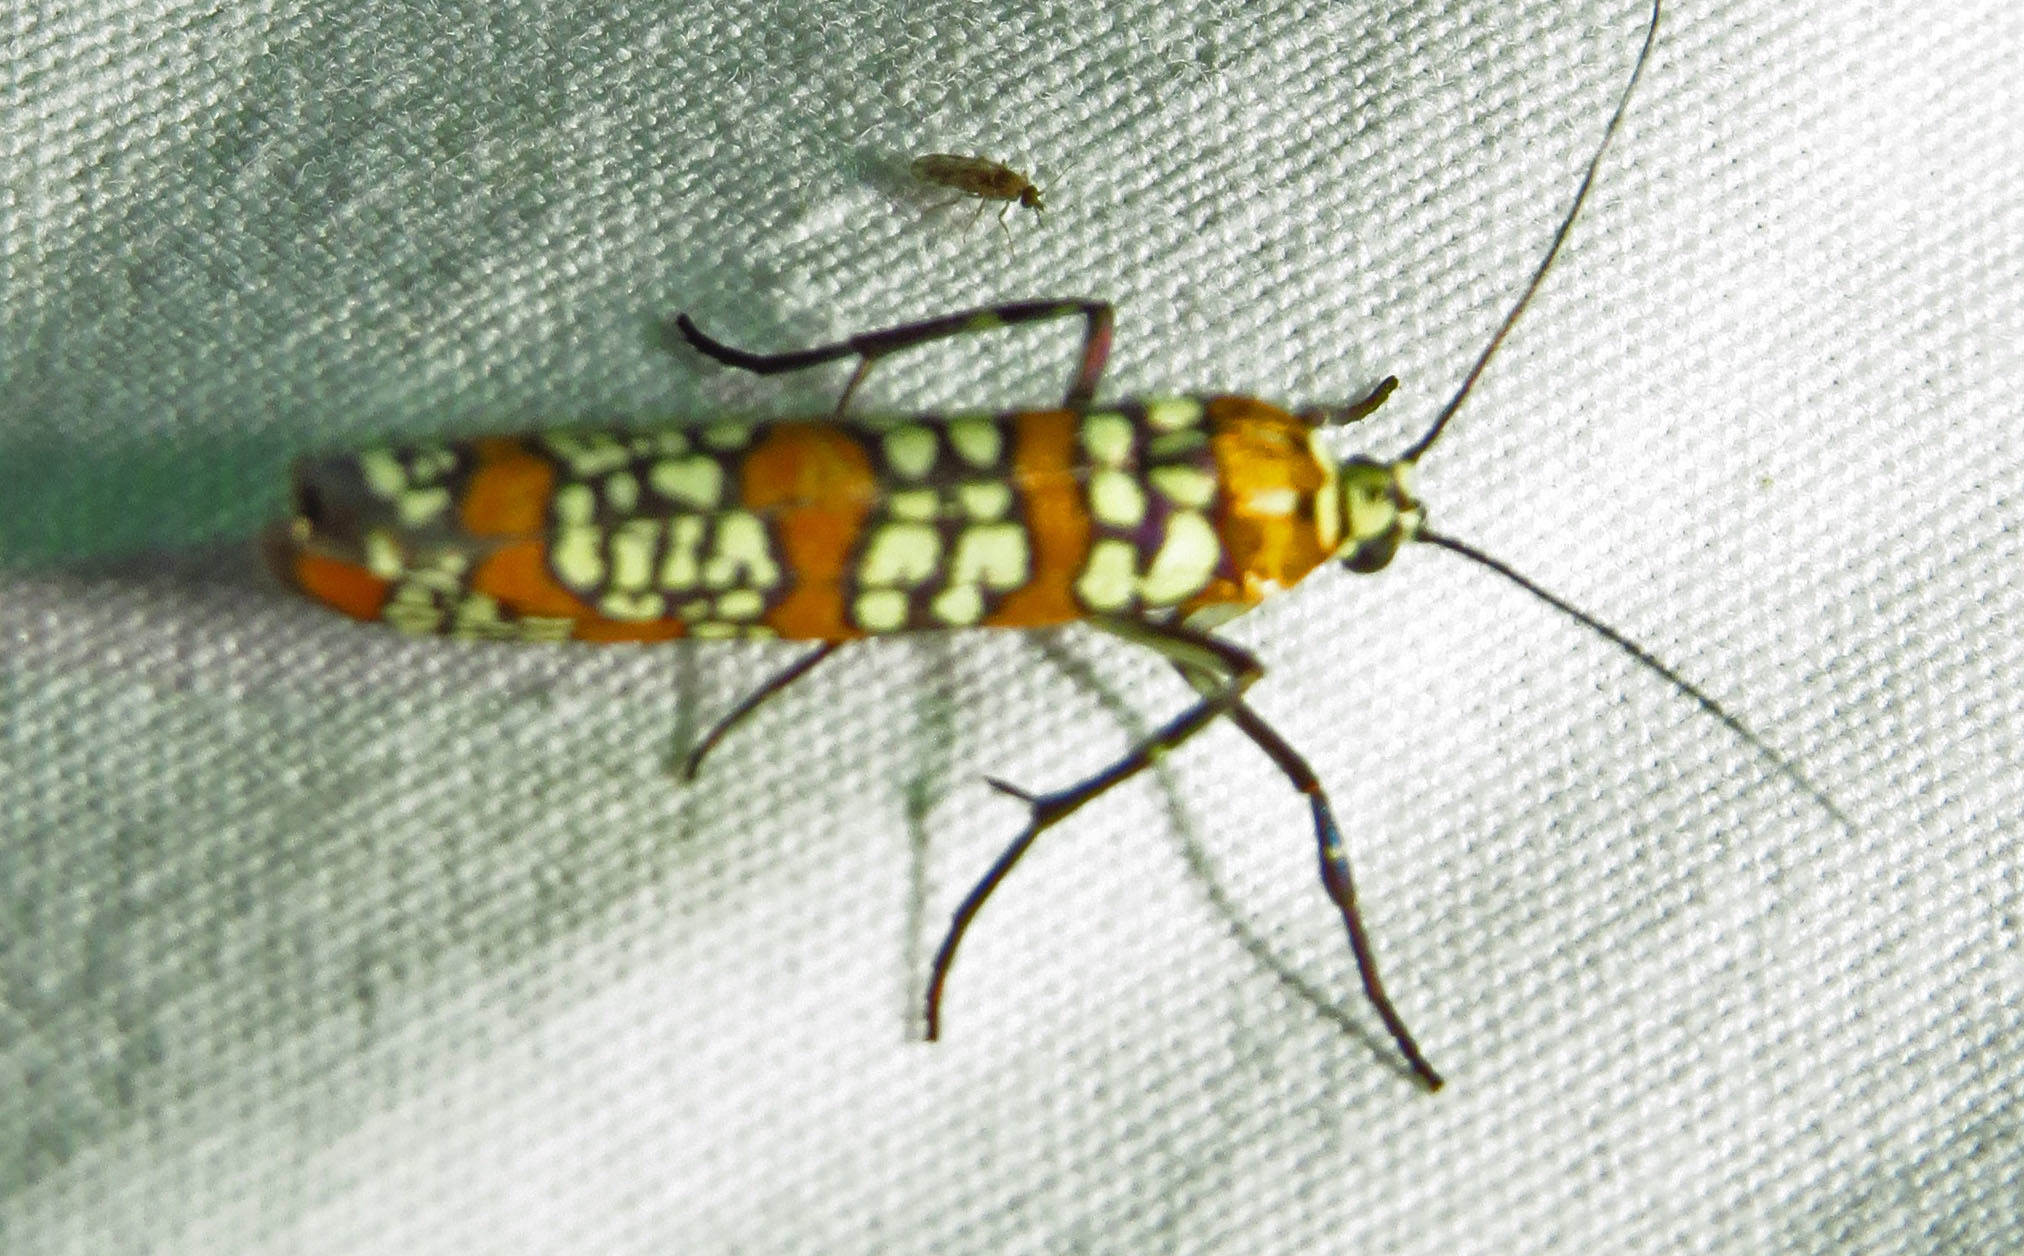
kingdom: Animalia
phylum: Arthropoda
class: Insecta
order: Lepidoptera
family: Attevidae
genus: Atteva
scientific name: Atteva punctella
